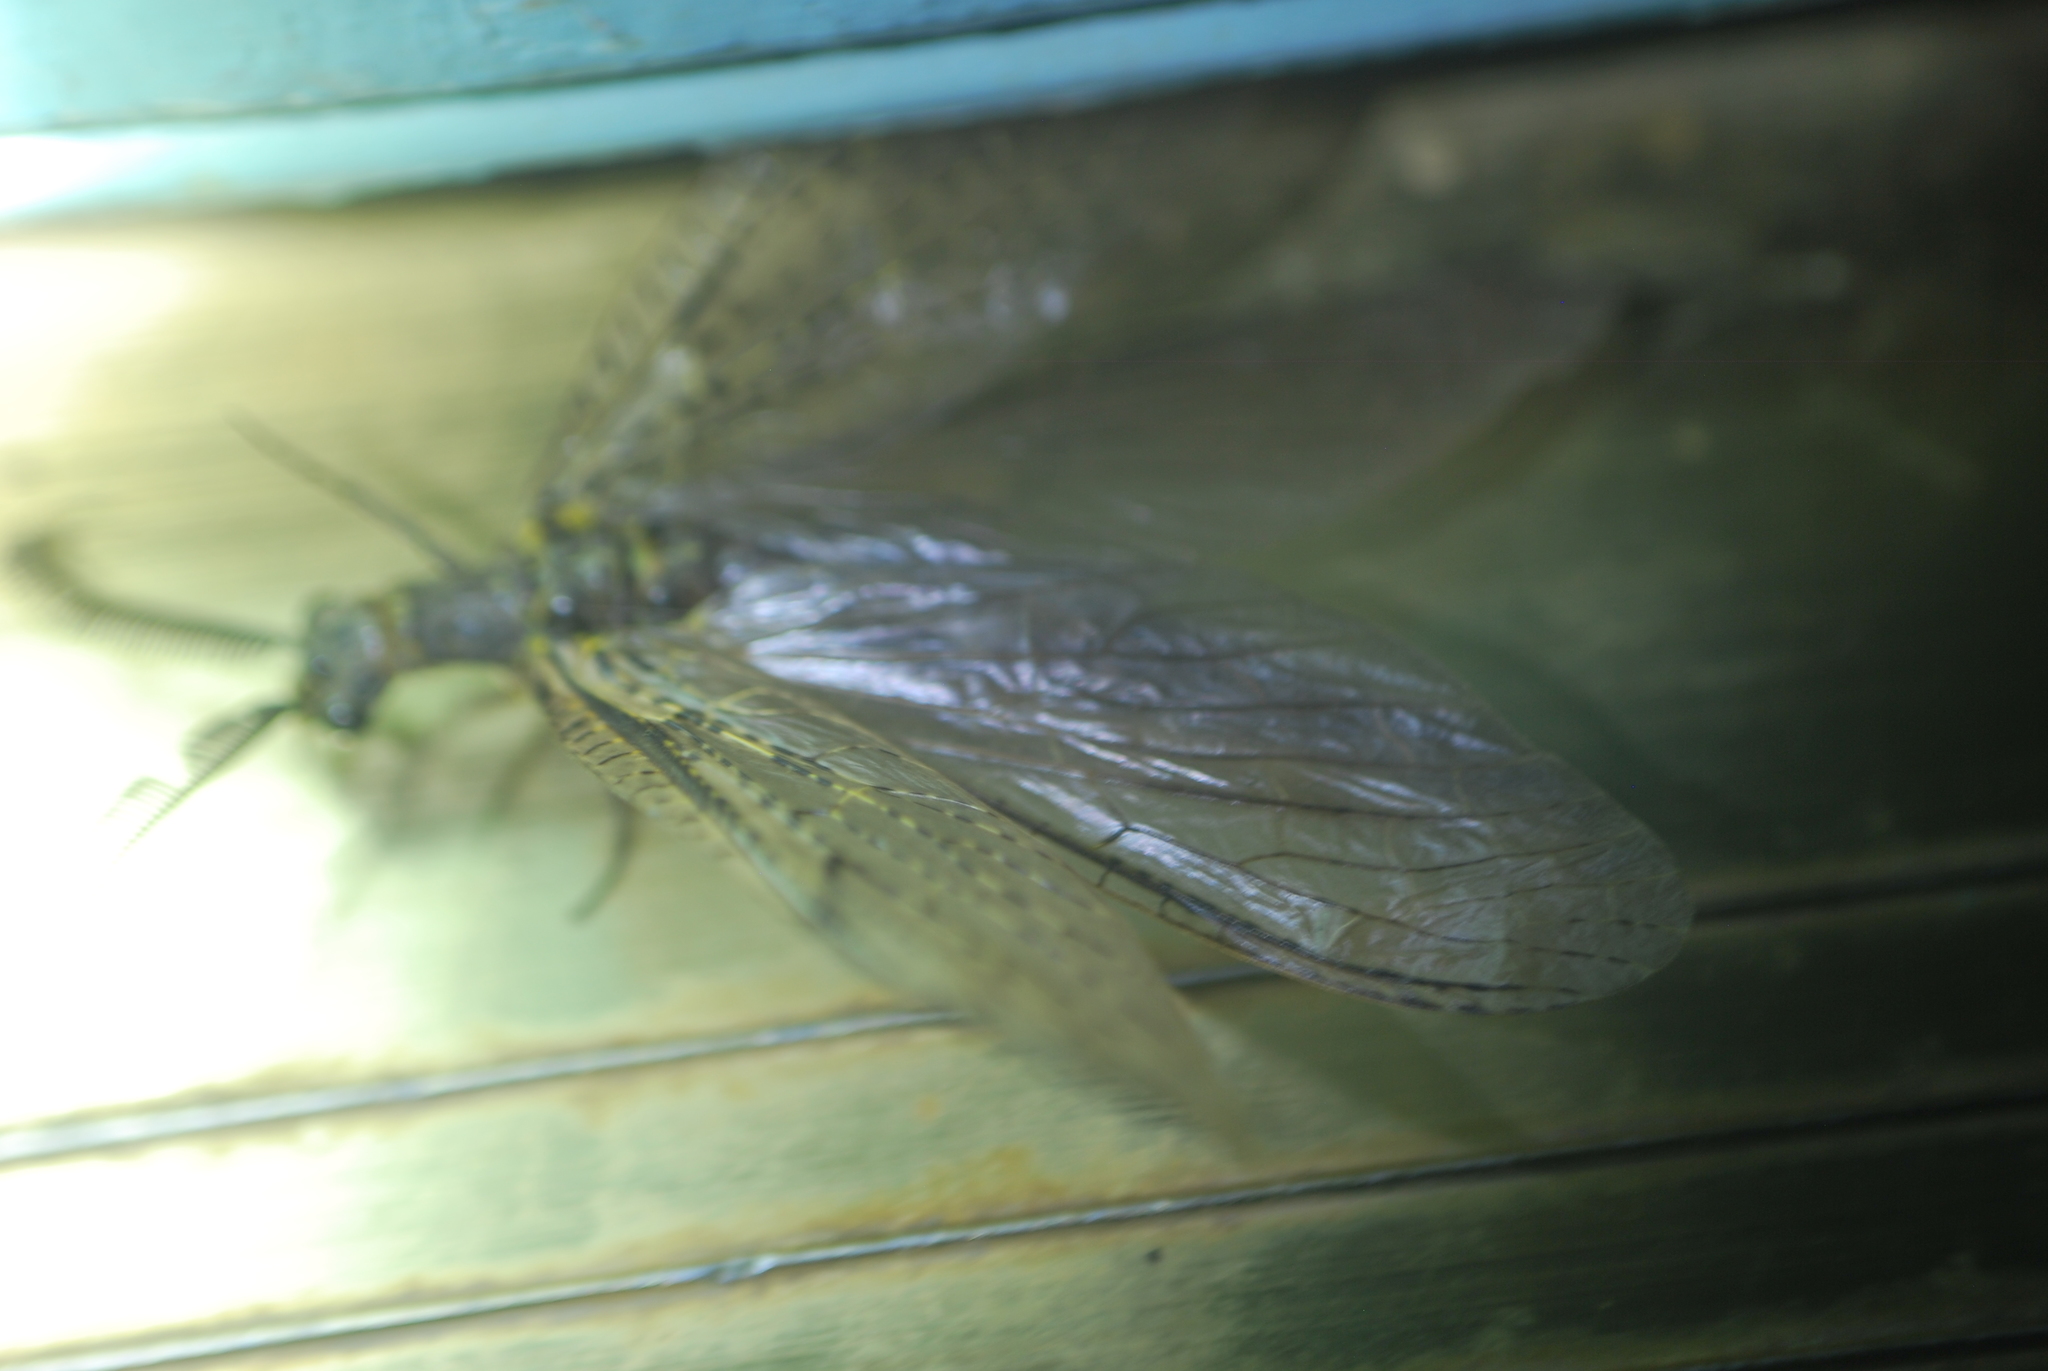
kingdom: Animalia
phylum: Arthropoda
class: Insecta
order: Megaloptera
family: Corydalidae
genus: Chauliodes
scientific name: Chauliodes rastricornis
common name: Spring fishfly
